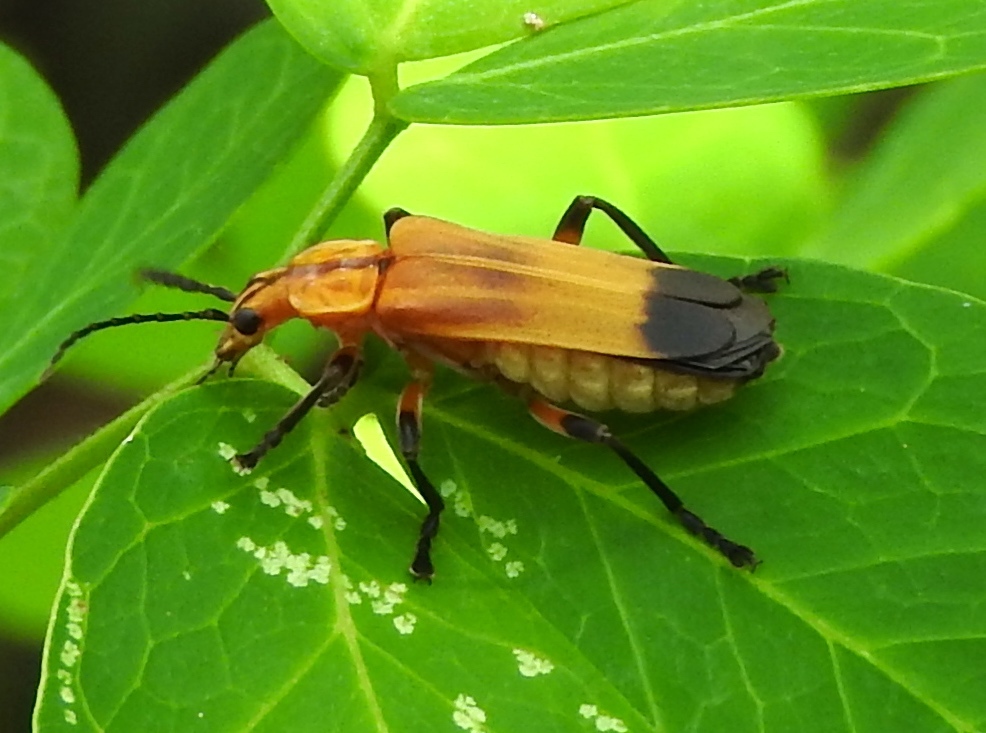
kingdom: Animalia
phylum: Arthropoda
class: Insecta
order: Coleoptera
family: Cantharidae
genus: Daiphron
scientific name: Daiphron proteum
